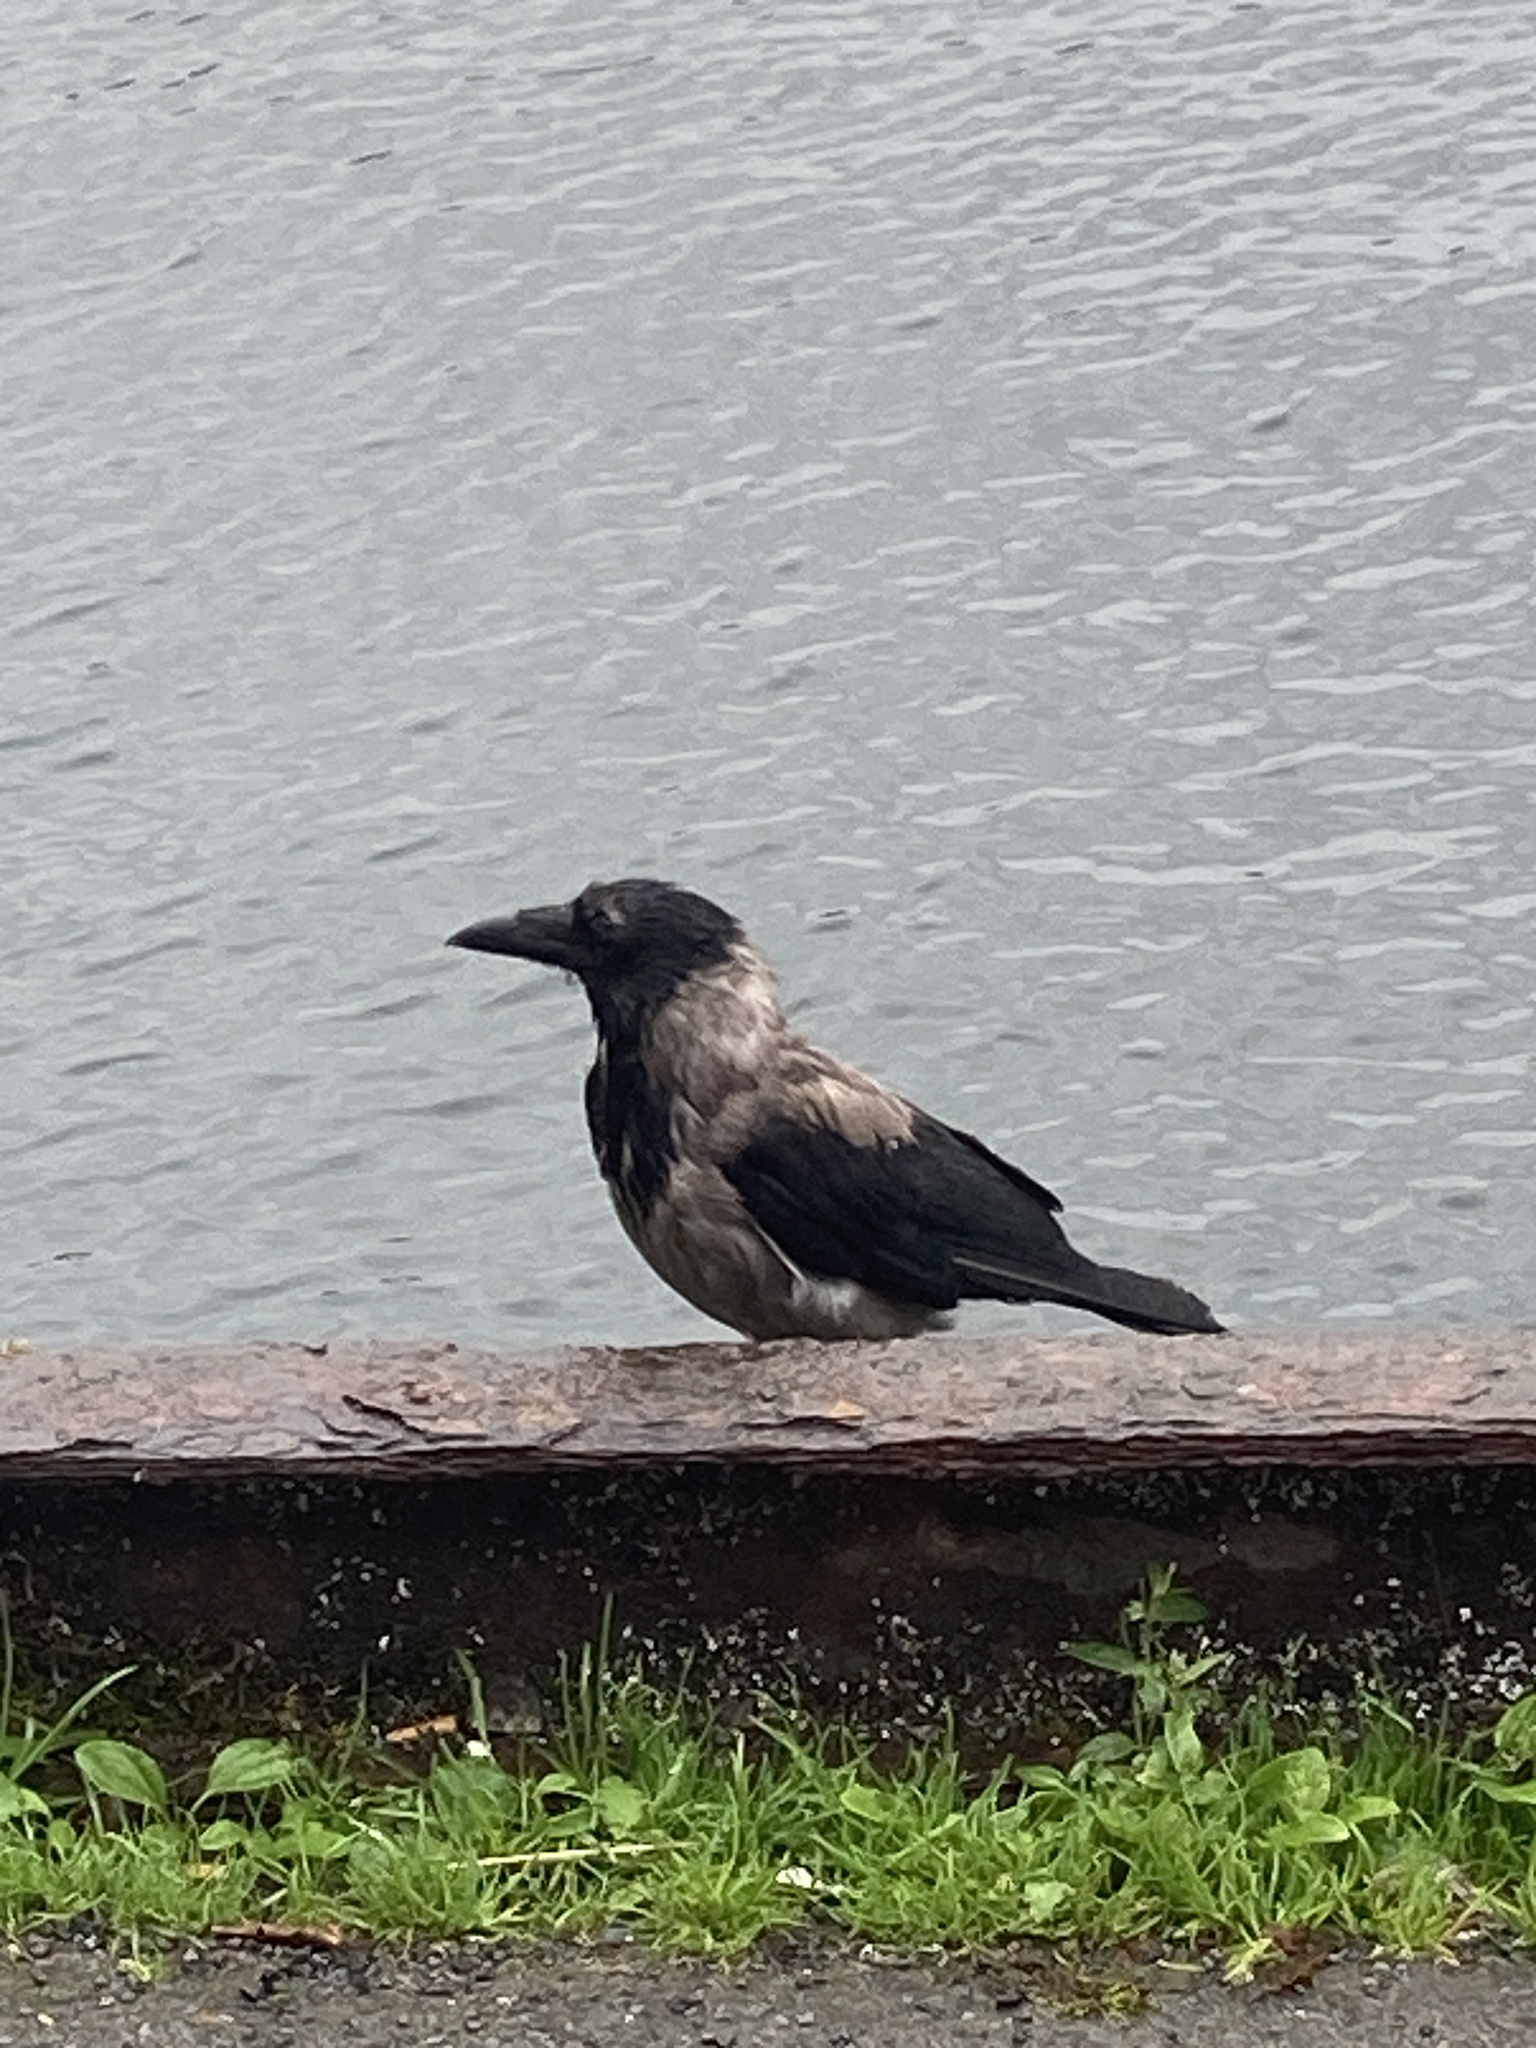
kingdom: Animalia
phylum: Chordata
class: Aves
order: Passeriformes
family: Corvidae
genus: Corvus
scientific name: Corvus cornix
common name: Hooded crow
